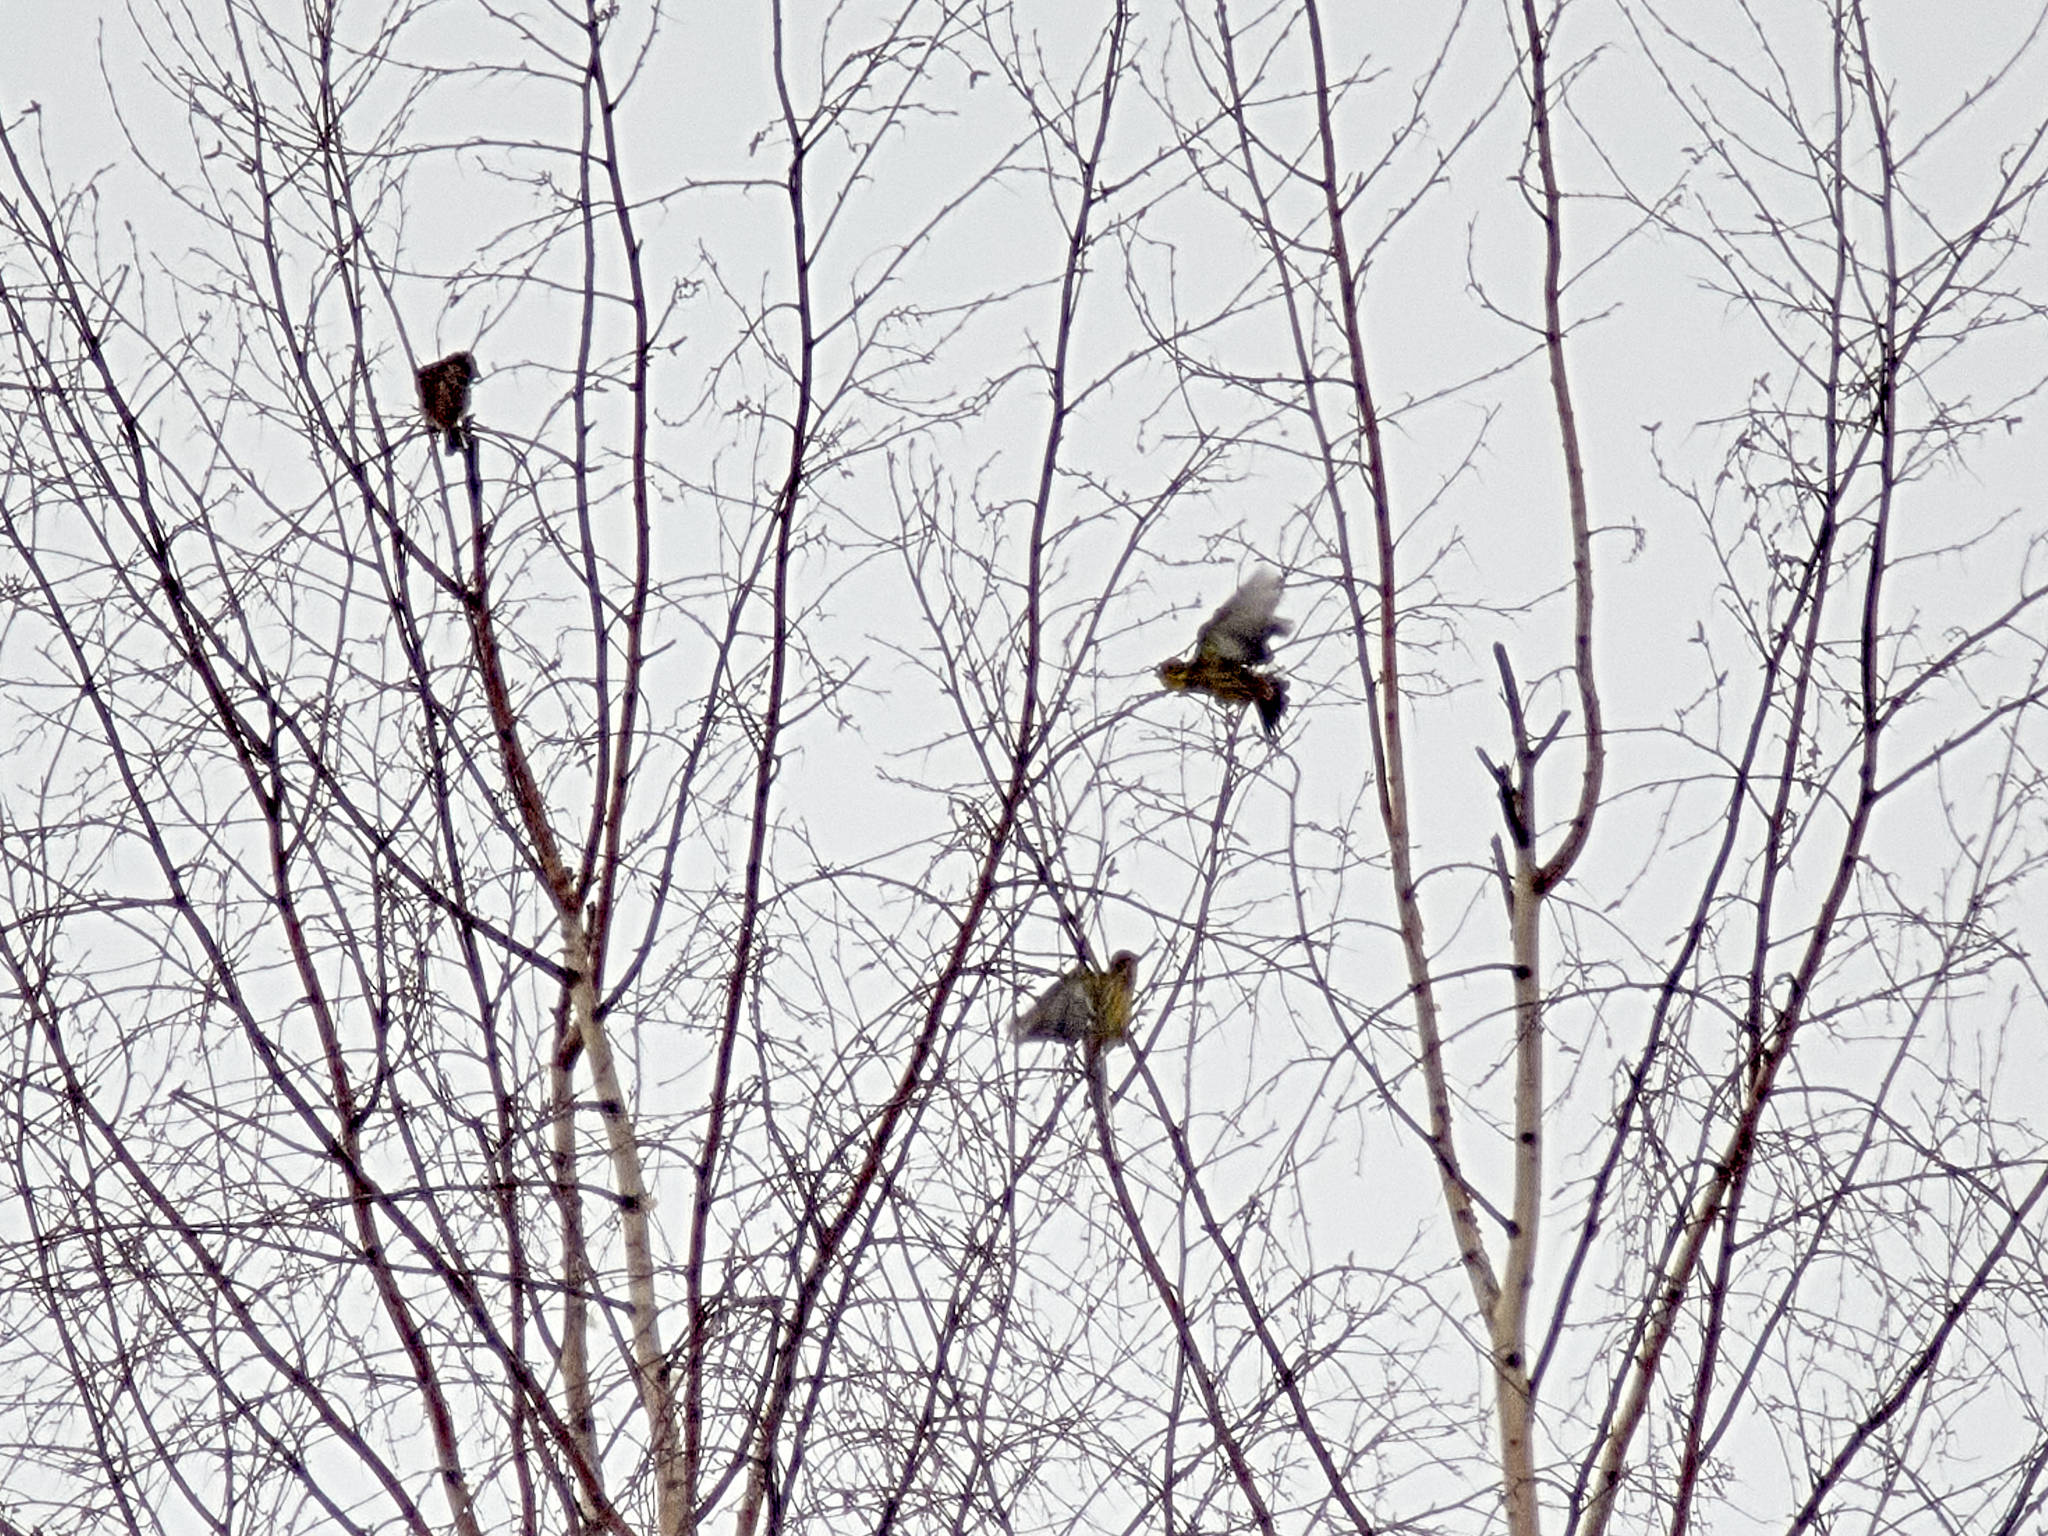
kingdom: Animalia
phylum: Chordata
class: Aves
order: Passeriformes
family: Emberizidae
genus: Emberiza
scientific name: Emberiza citrinella
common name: Yellowhammer
